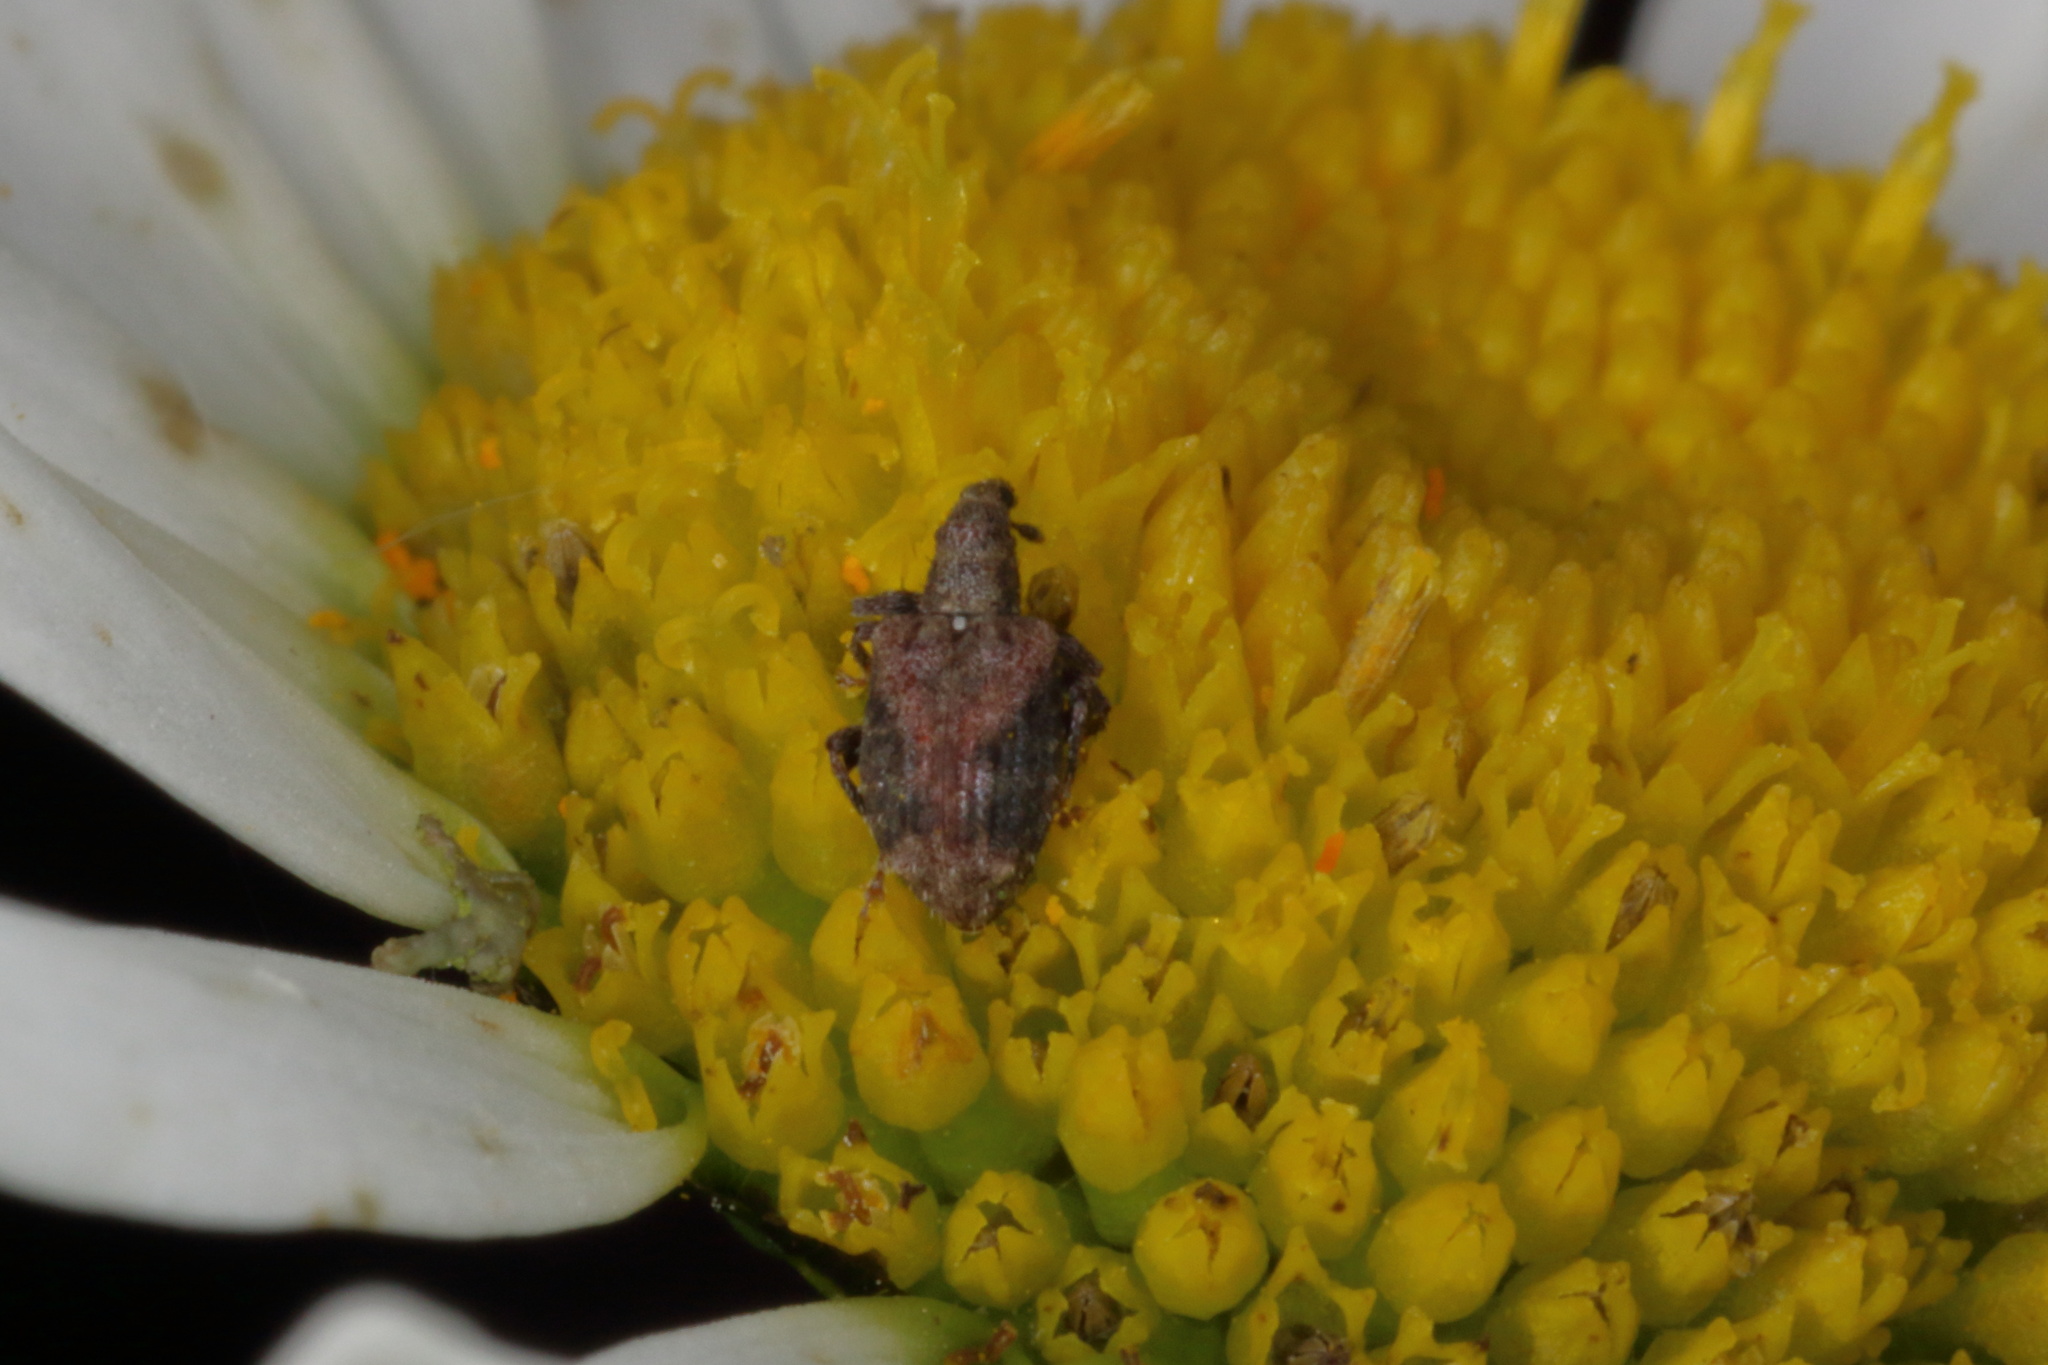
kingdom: Animalia
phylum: Arthropoda
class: Insecta
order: Coleoptera
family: Curculionidae
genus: Tysius
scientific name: Tysius bicornis
